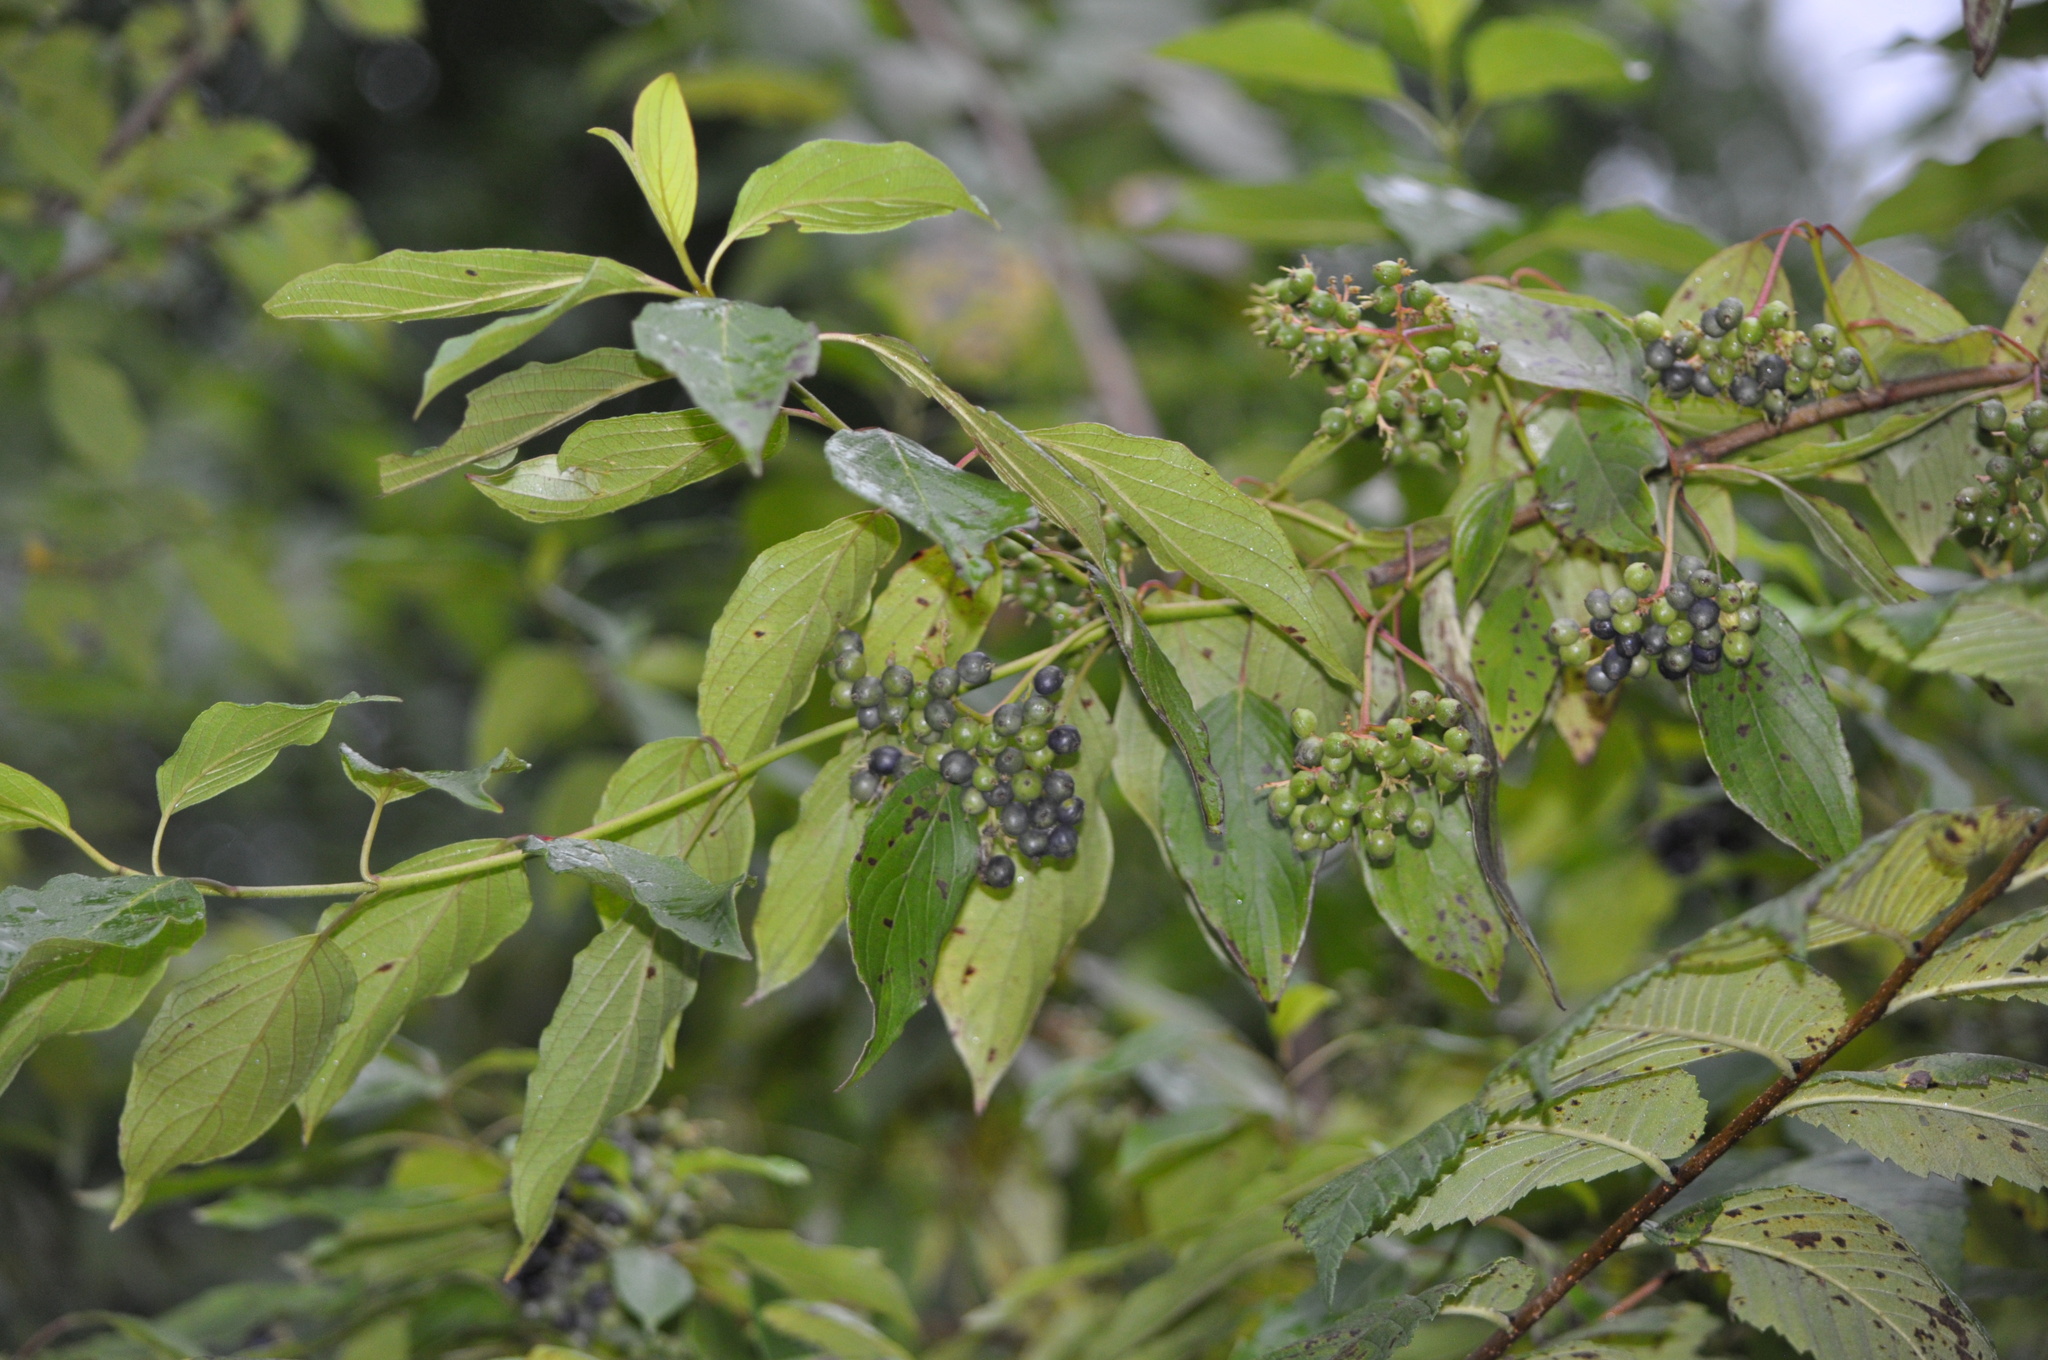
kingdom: Plantae
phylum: Tracheophyta
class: Magnoliopsida
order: Cornales
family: Cornaceae
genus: Cornus
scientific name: Cornus amomum
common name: Silky dogwood
